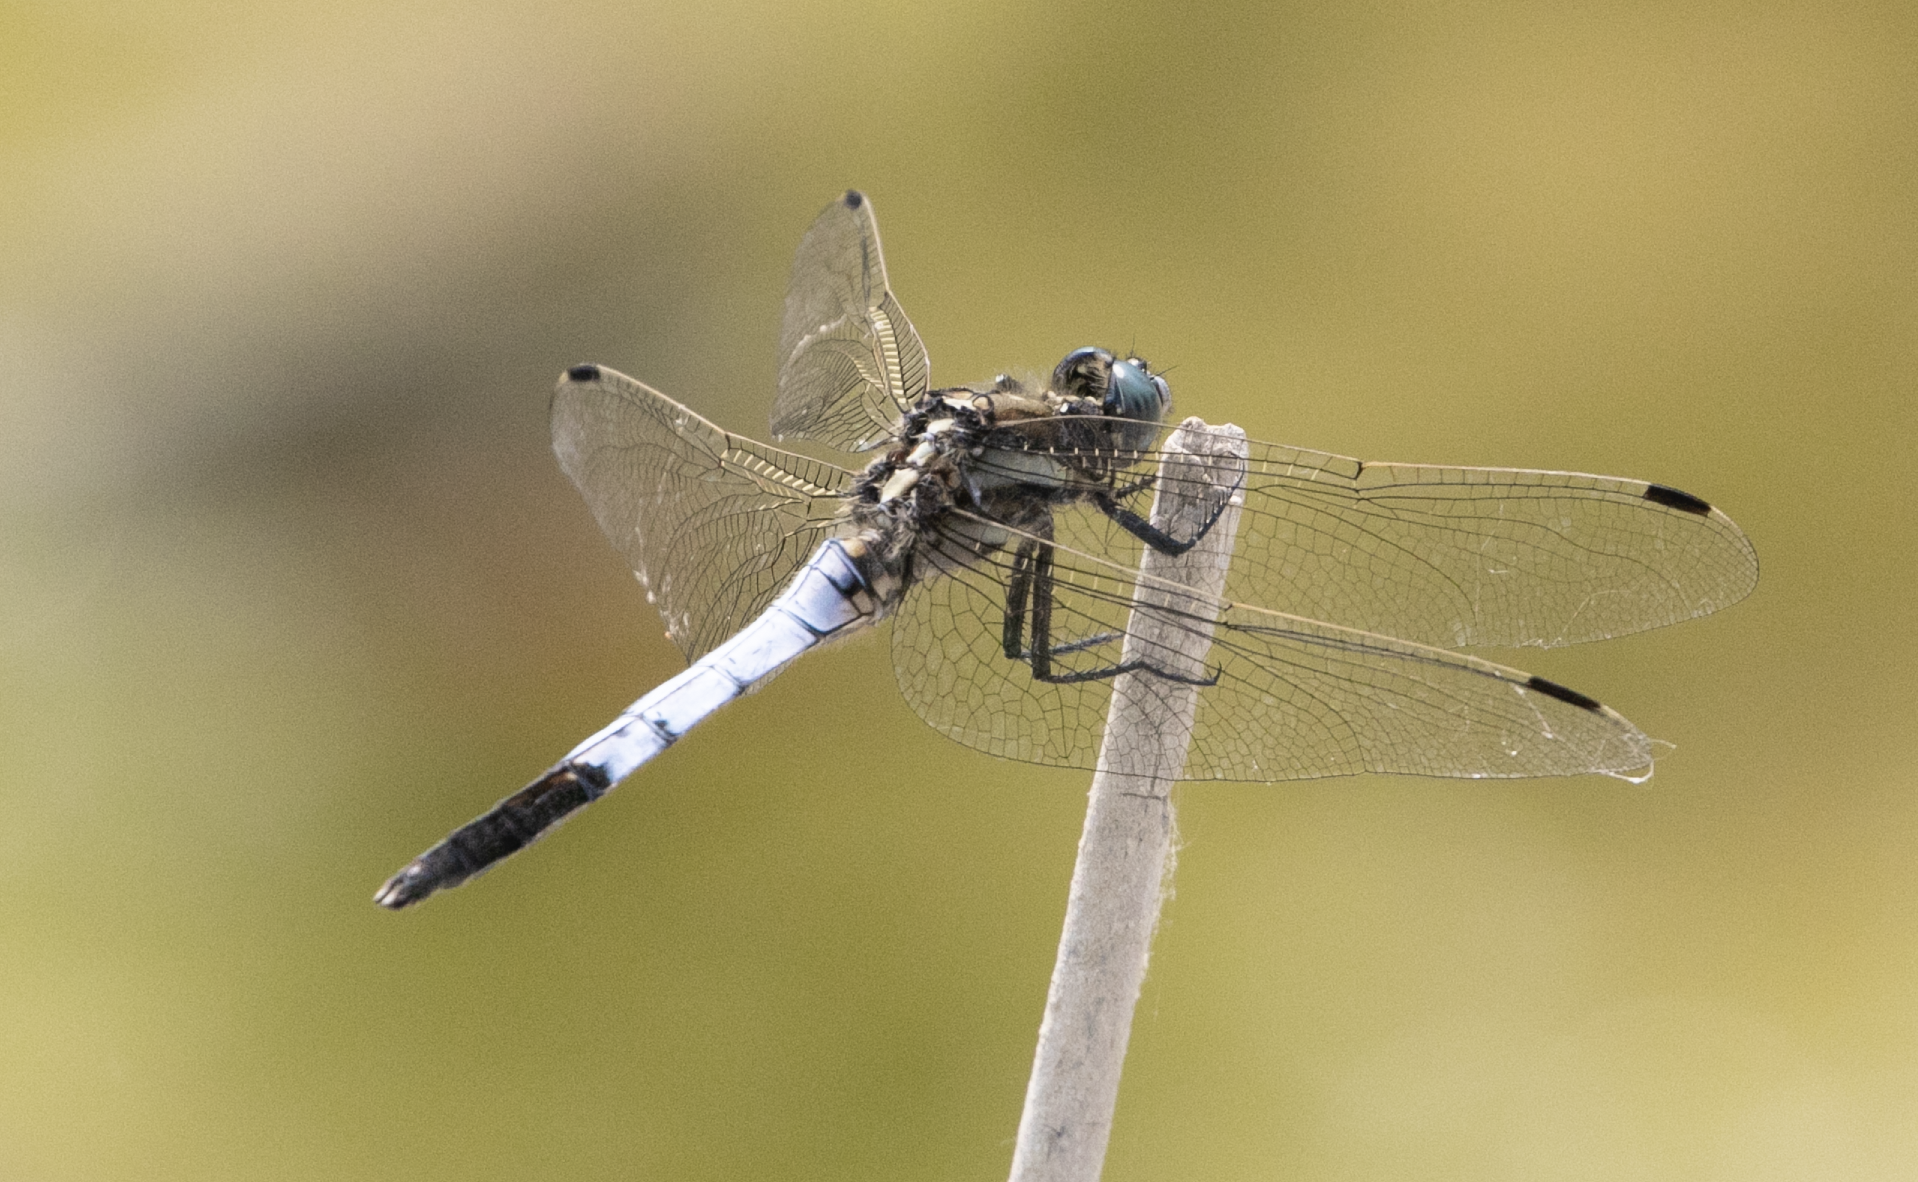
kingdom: Animalia
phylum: Arthropoda
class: Insecta
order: Odonata
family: Libellulidae
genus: Orthetrum
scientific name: Orthetrum albistylum
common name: White-tailed skimmer
